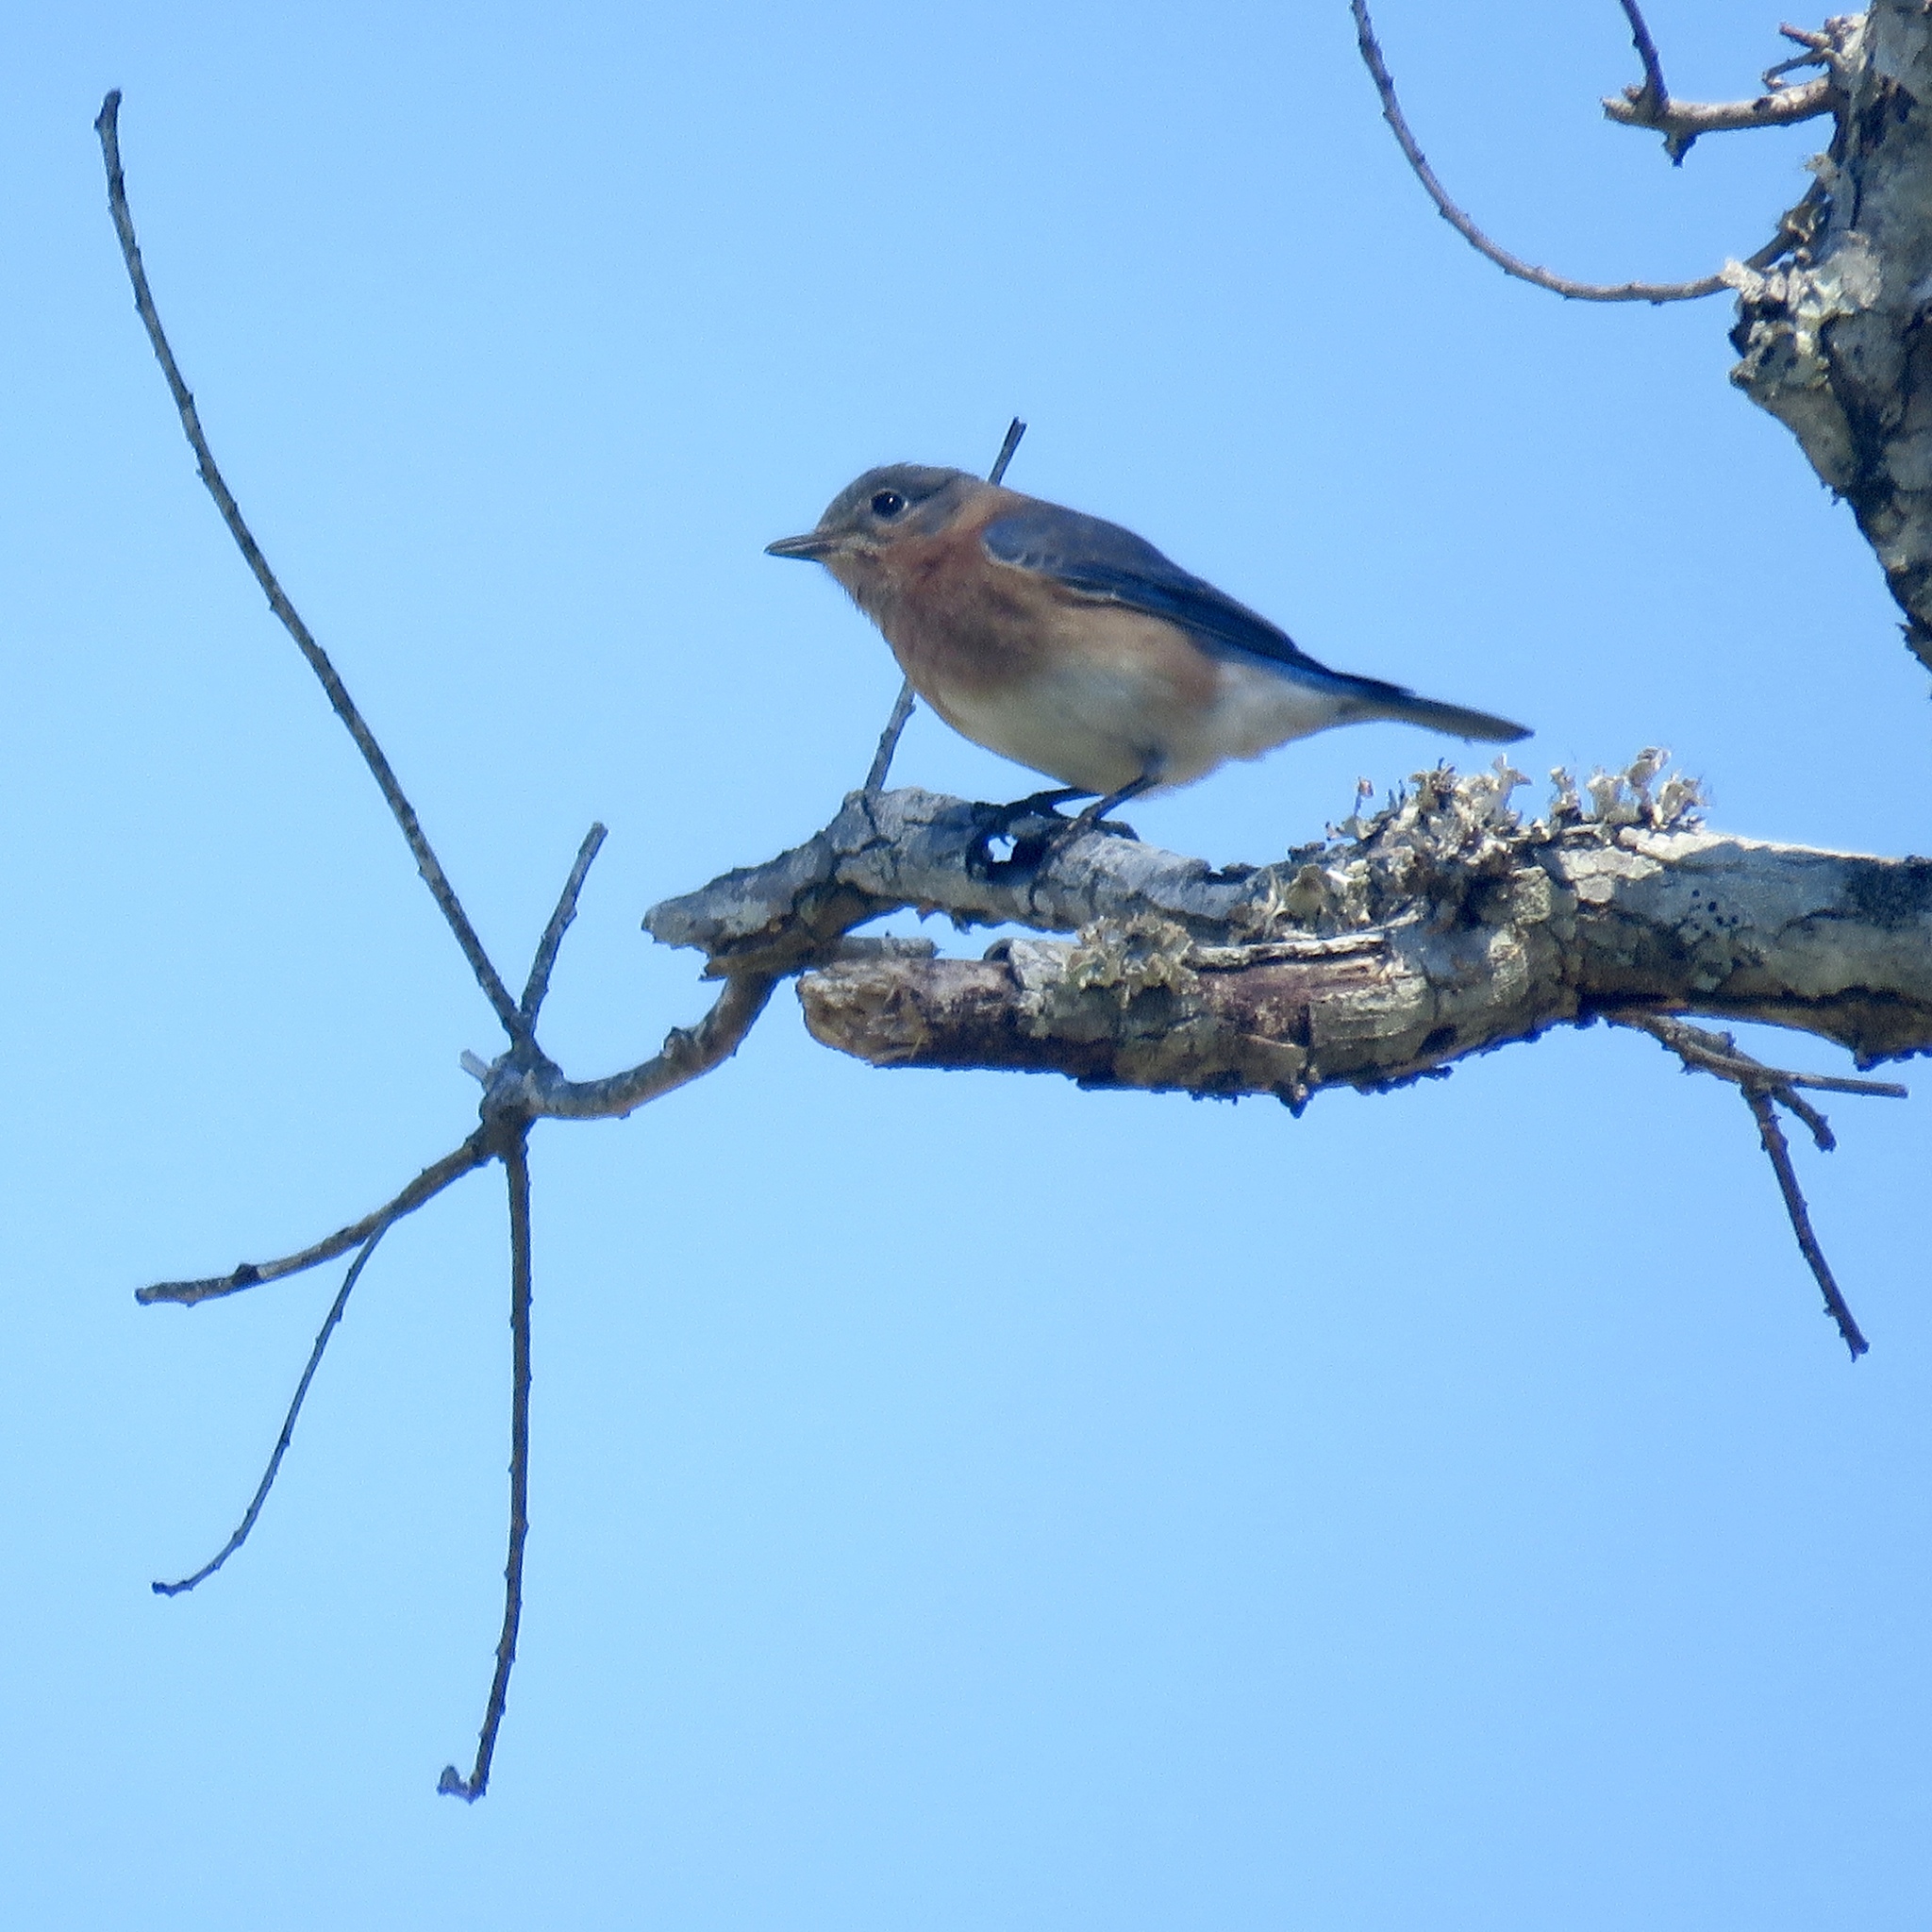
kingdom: Animalia
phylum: Chordata
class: Aves
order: Passeriformes
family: Turdidae
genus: Sialia
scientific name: Sialia sialis
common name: Eastern bluebird
